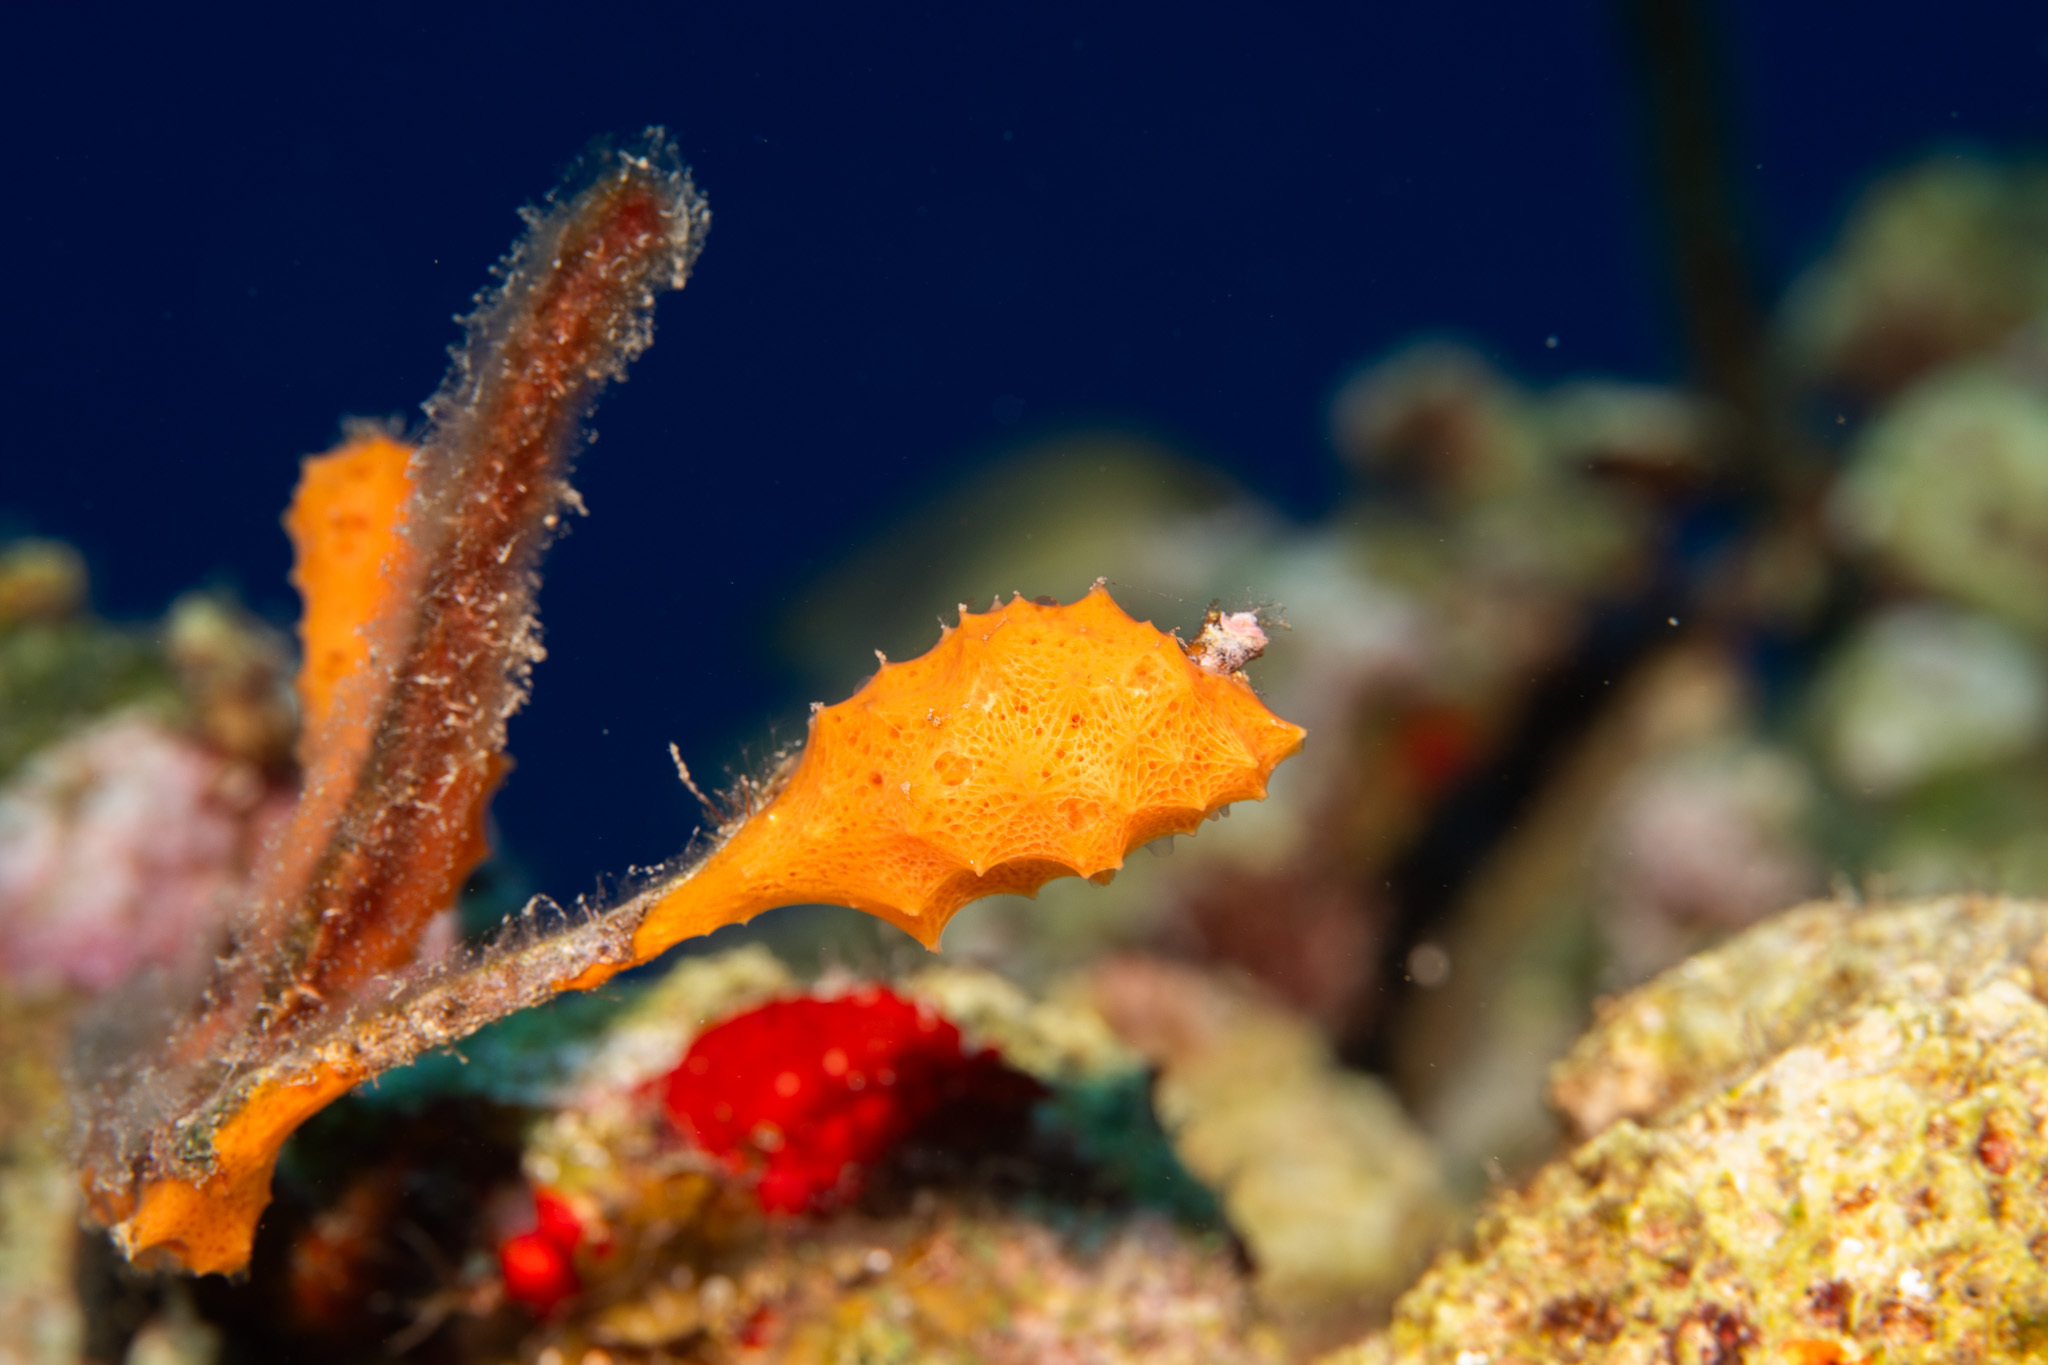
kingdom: Animalia
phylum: Porifera
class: Demospongiae
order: Scopalinida
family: Scopalinidae
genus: Scopalina
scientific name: Scopalina ruetzleri
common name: Orange lumpy encrusting sponge
